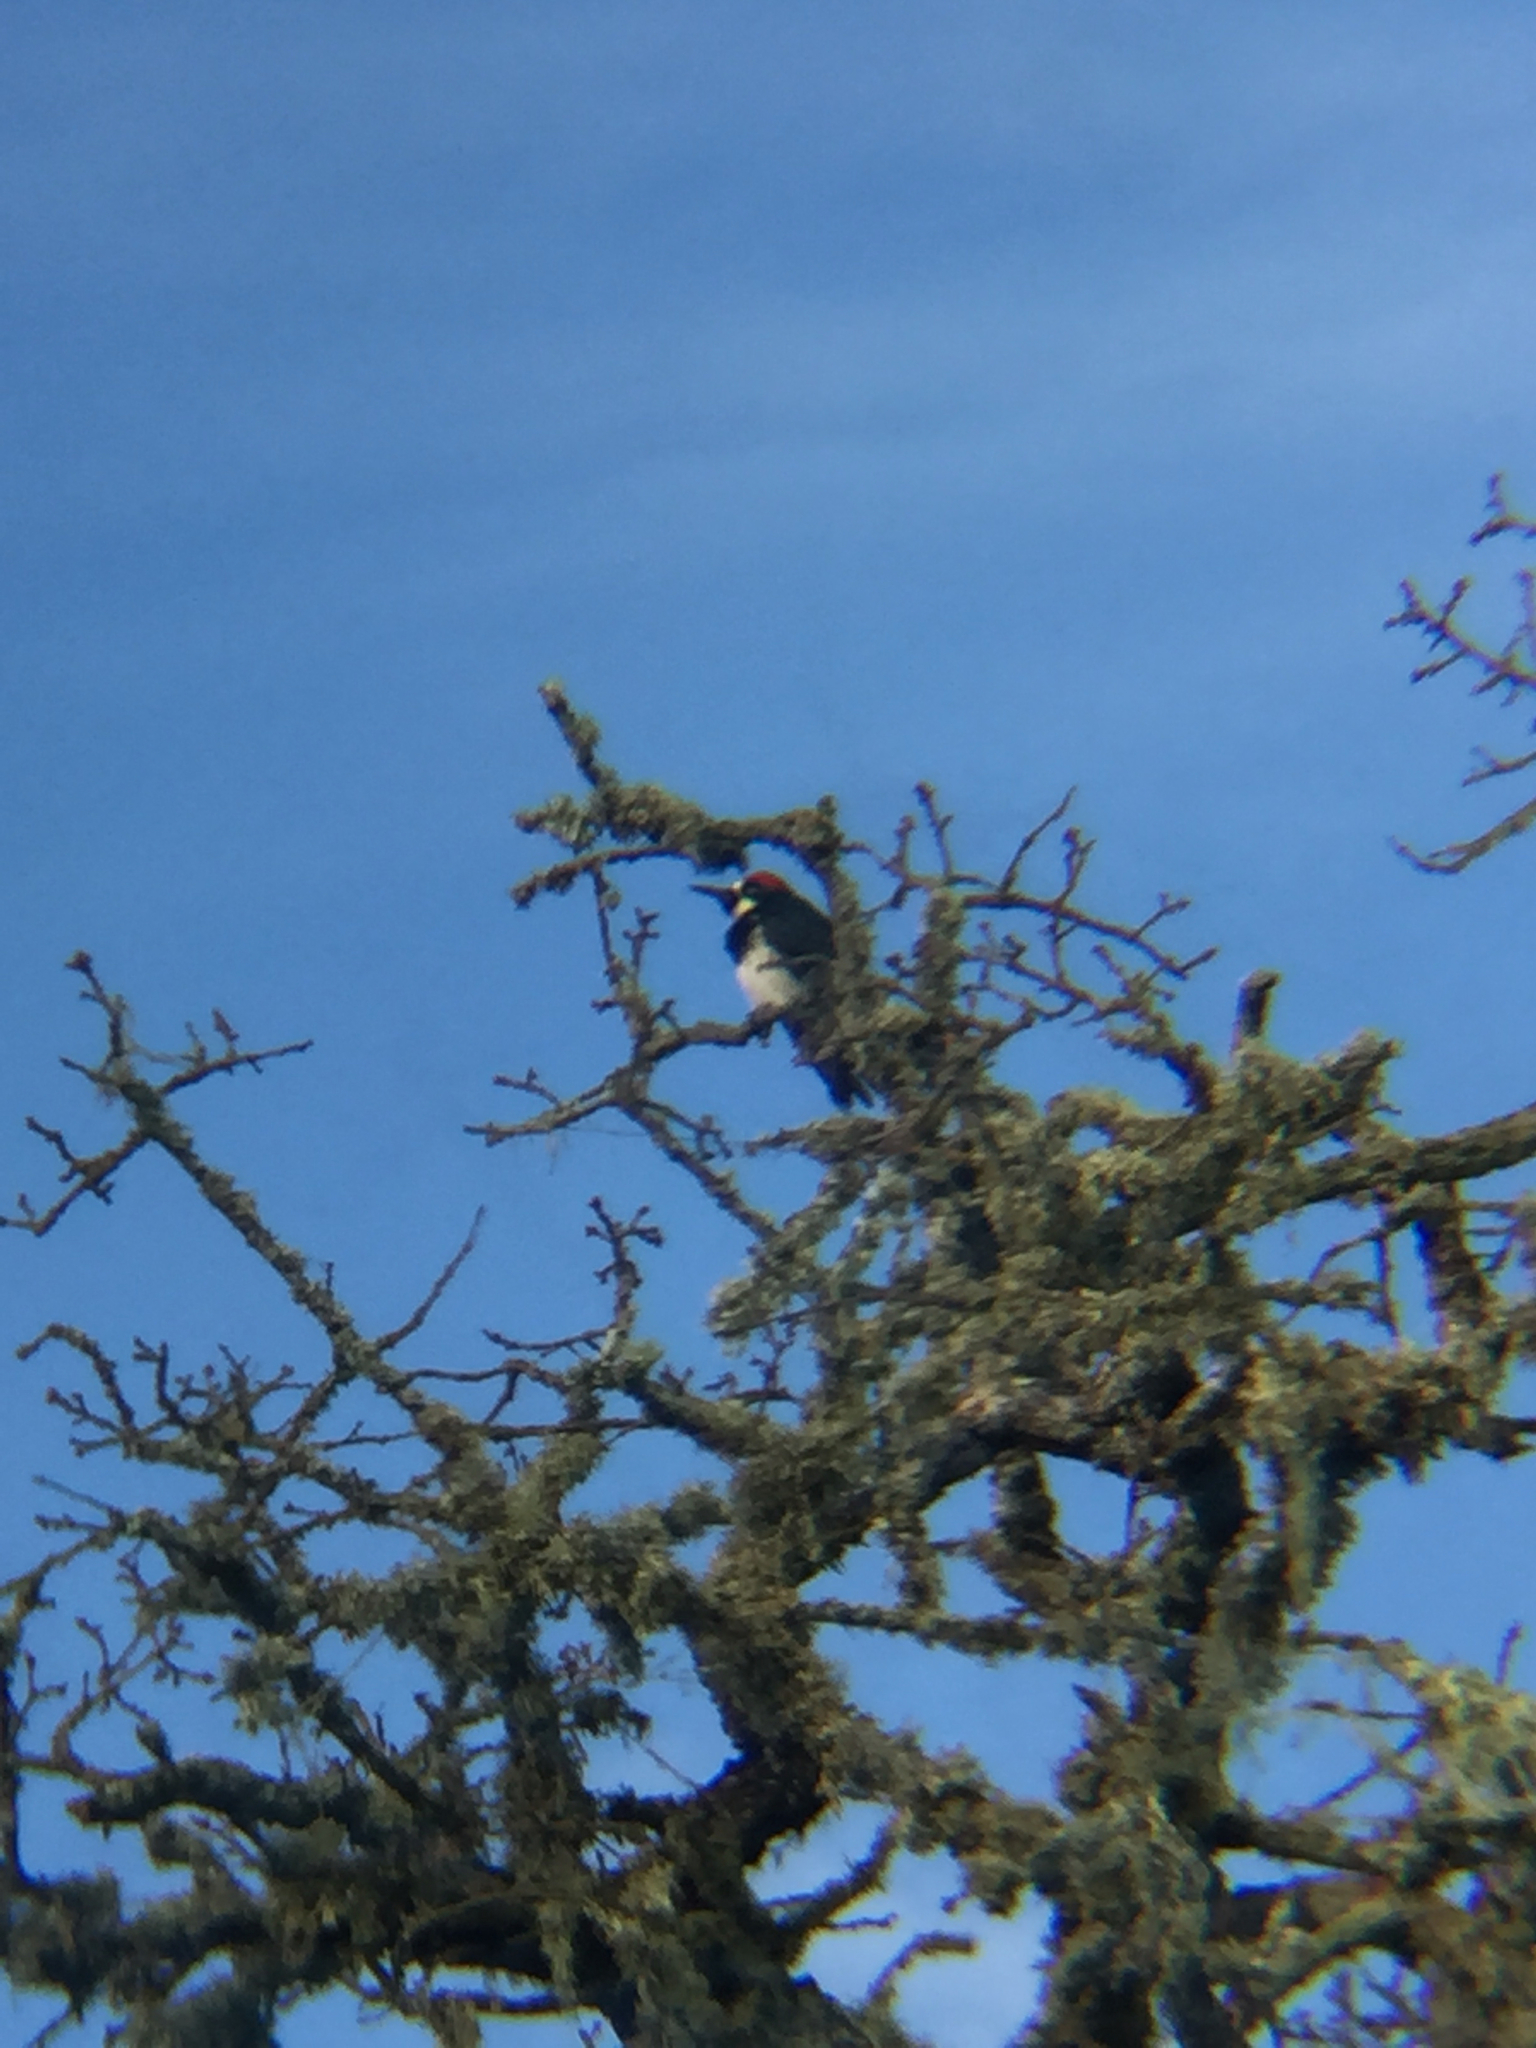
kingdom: Animalia
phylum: Chordata
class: Aves
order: Piciformes
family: Picidae
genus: Melanerpes
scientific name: Melanerpes formicivorus
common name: Acorn woodpecker
